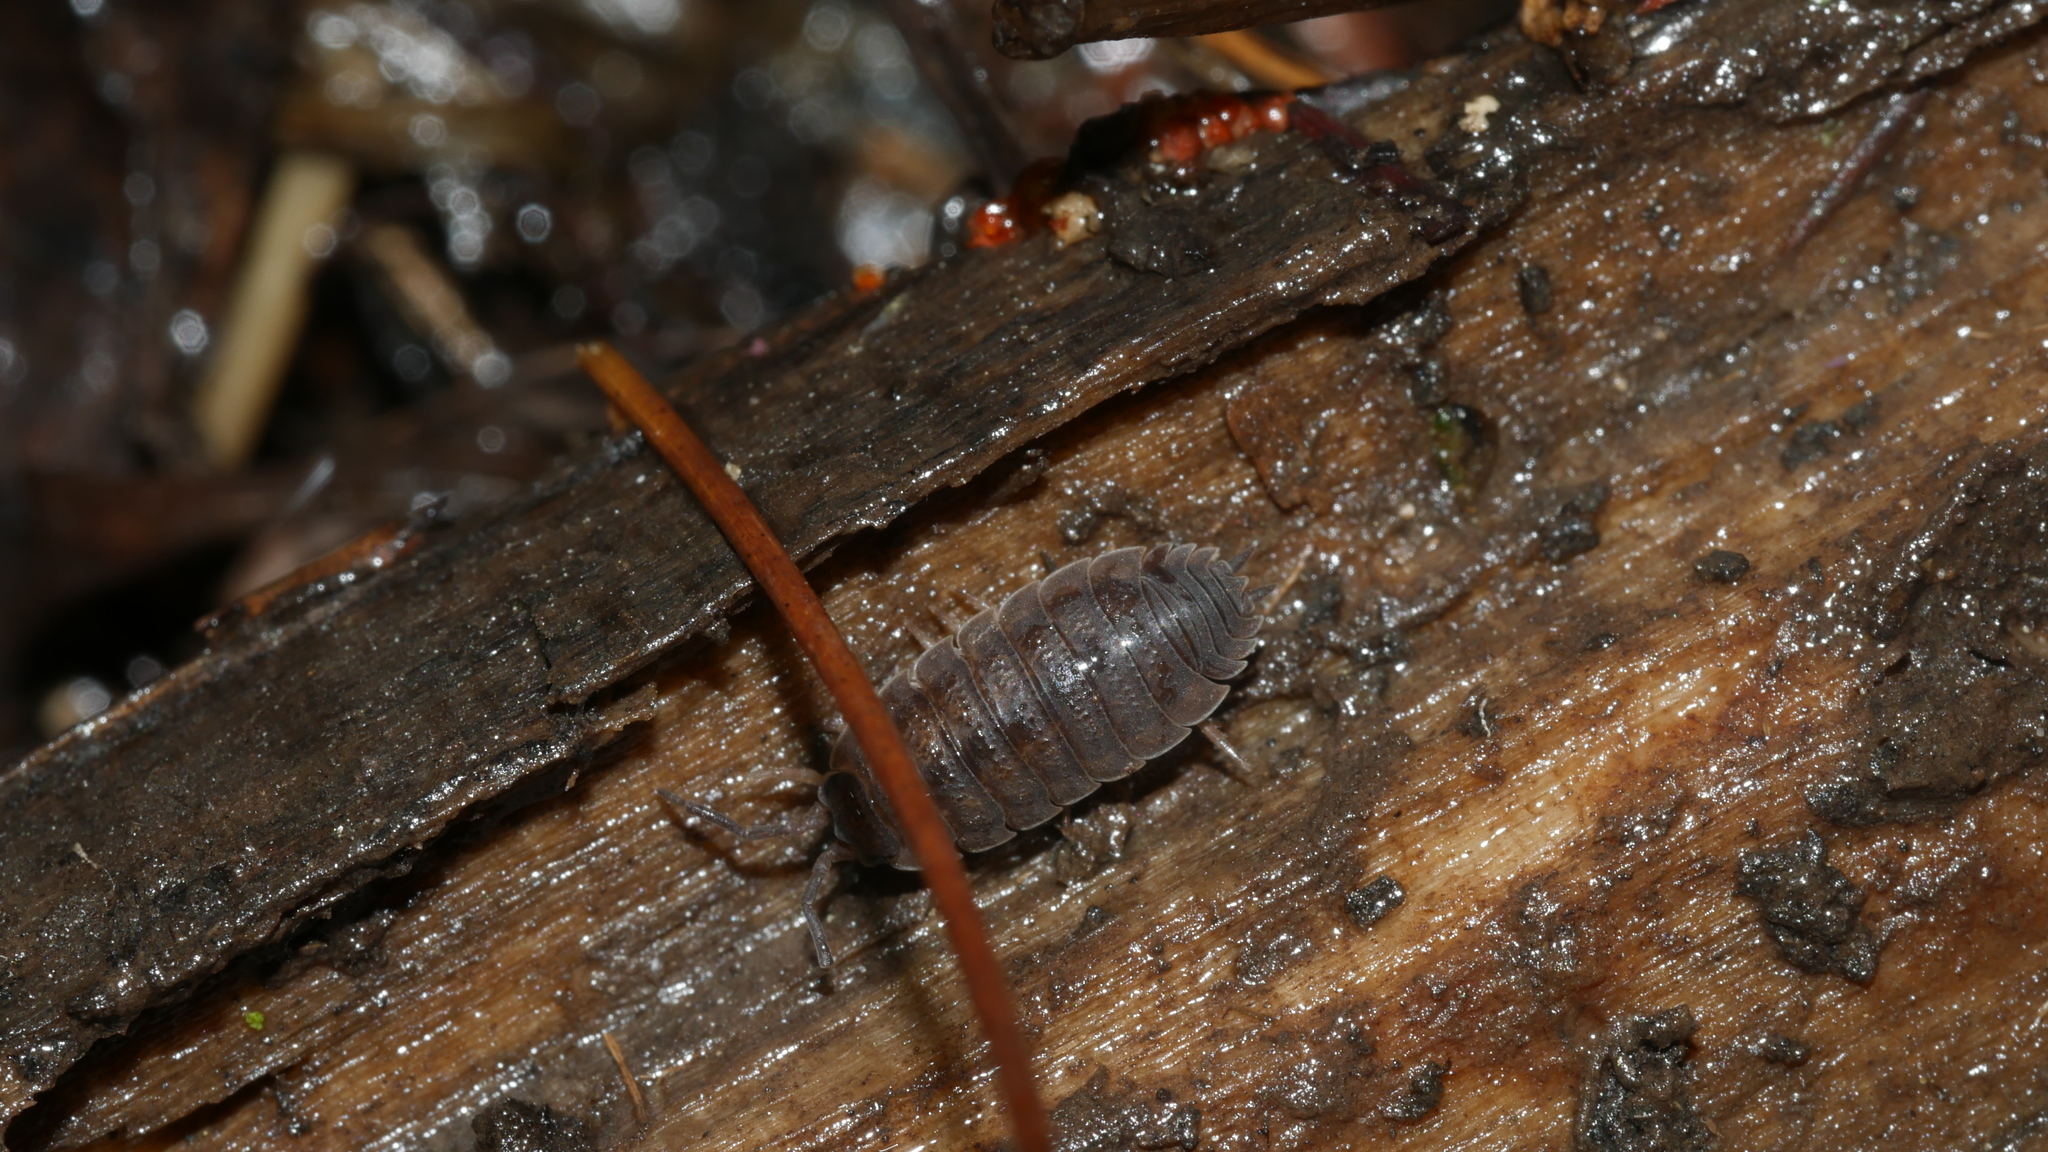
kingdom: Animalia
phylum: Arthropoda
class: Malacostraca
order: Isopoda
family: Porcellionidae
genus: Porcellio
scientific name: Porcellio scaber
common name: Common rough woodlouse
